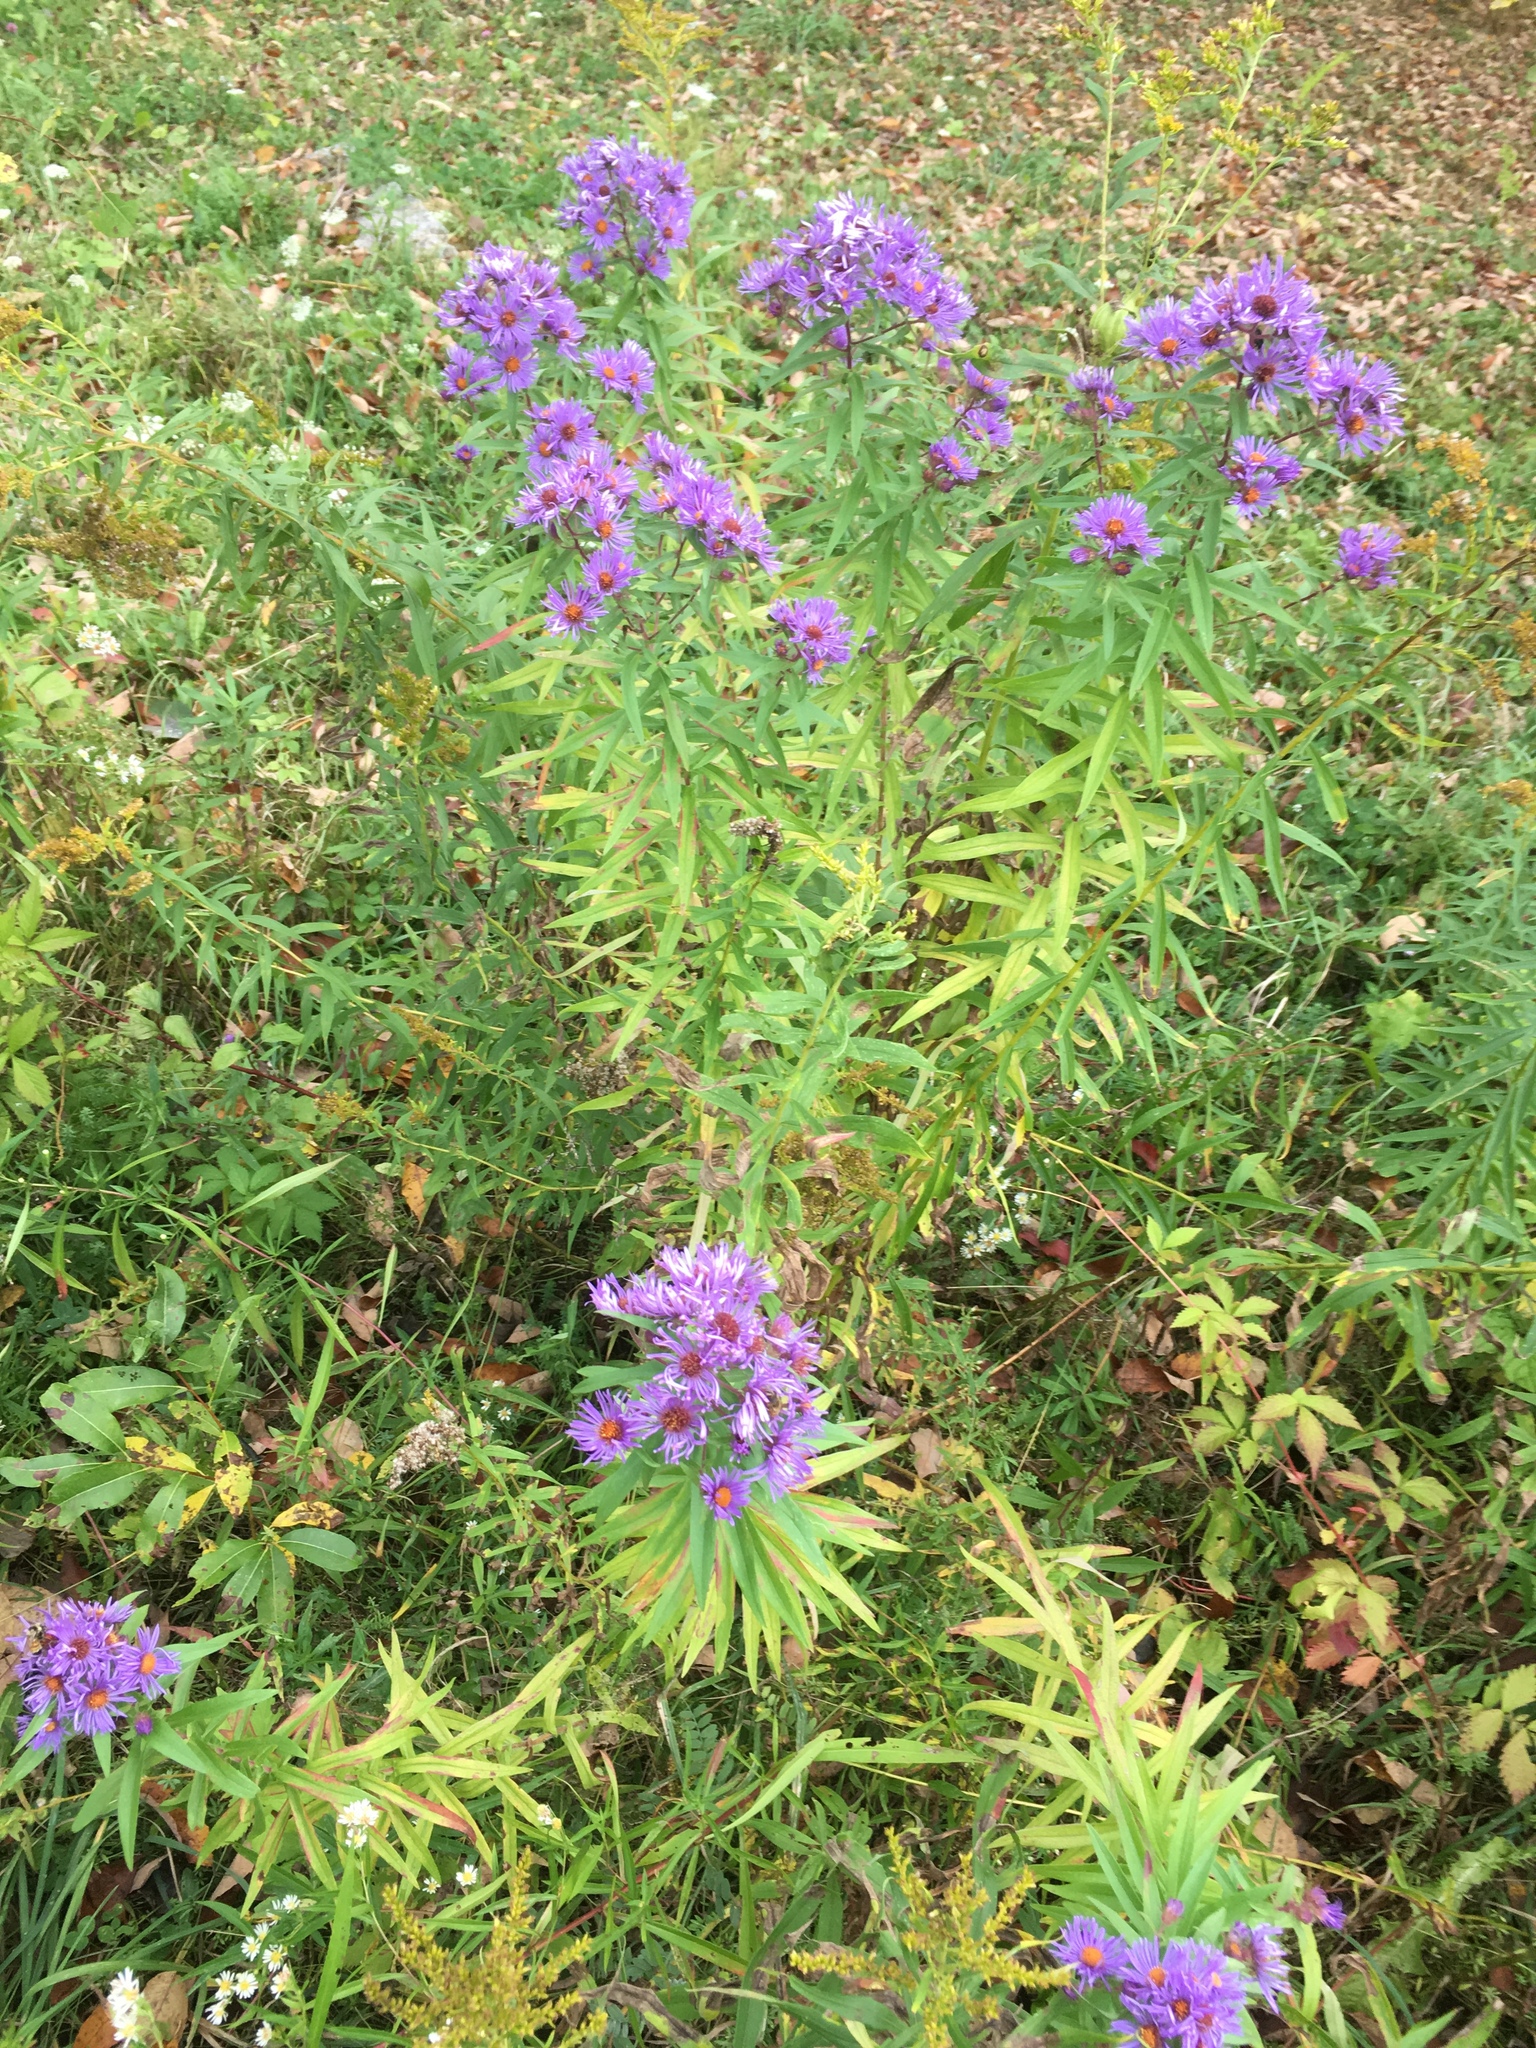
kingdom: Plantae
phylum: Tracheophyta
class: Magnoliopsida
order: Asterales
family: Asteraceae
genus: Symphyotrichum
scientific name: Symphyotrichum novae-angliae
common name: Michaelmas daisy
